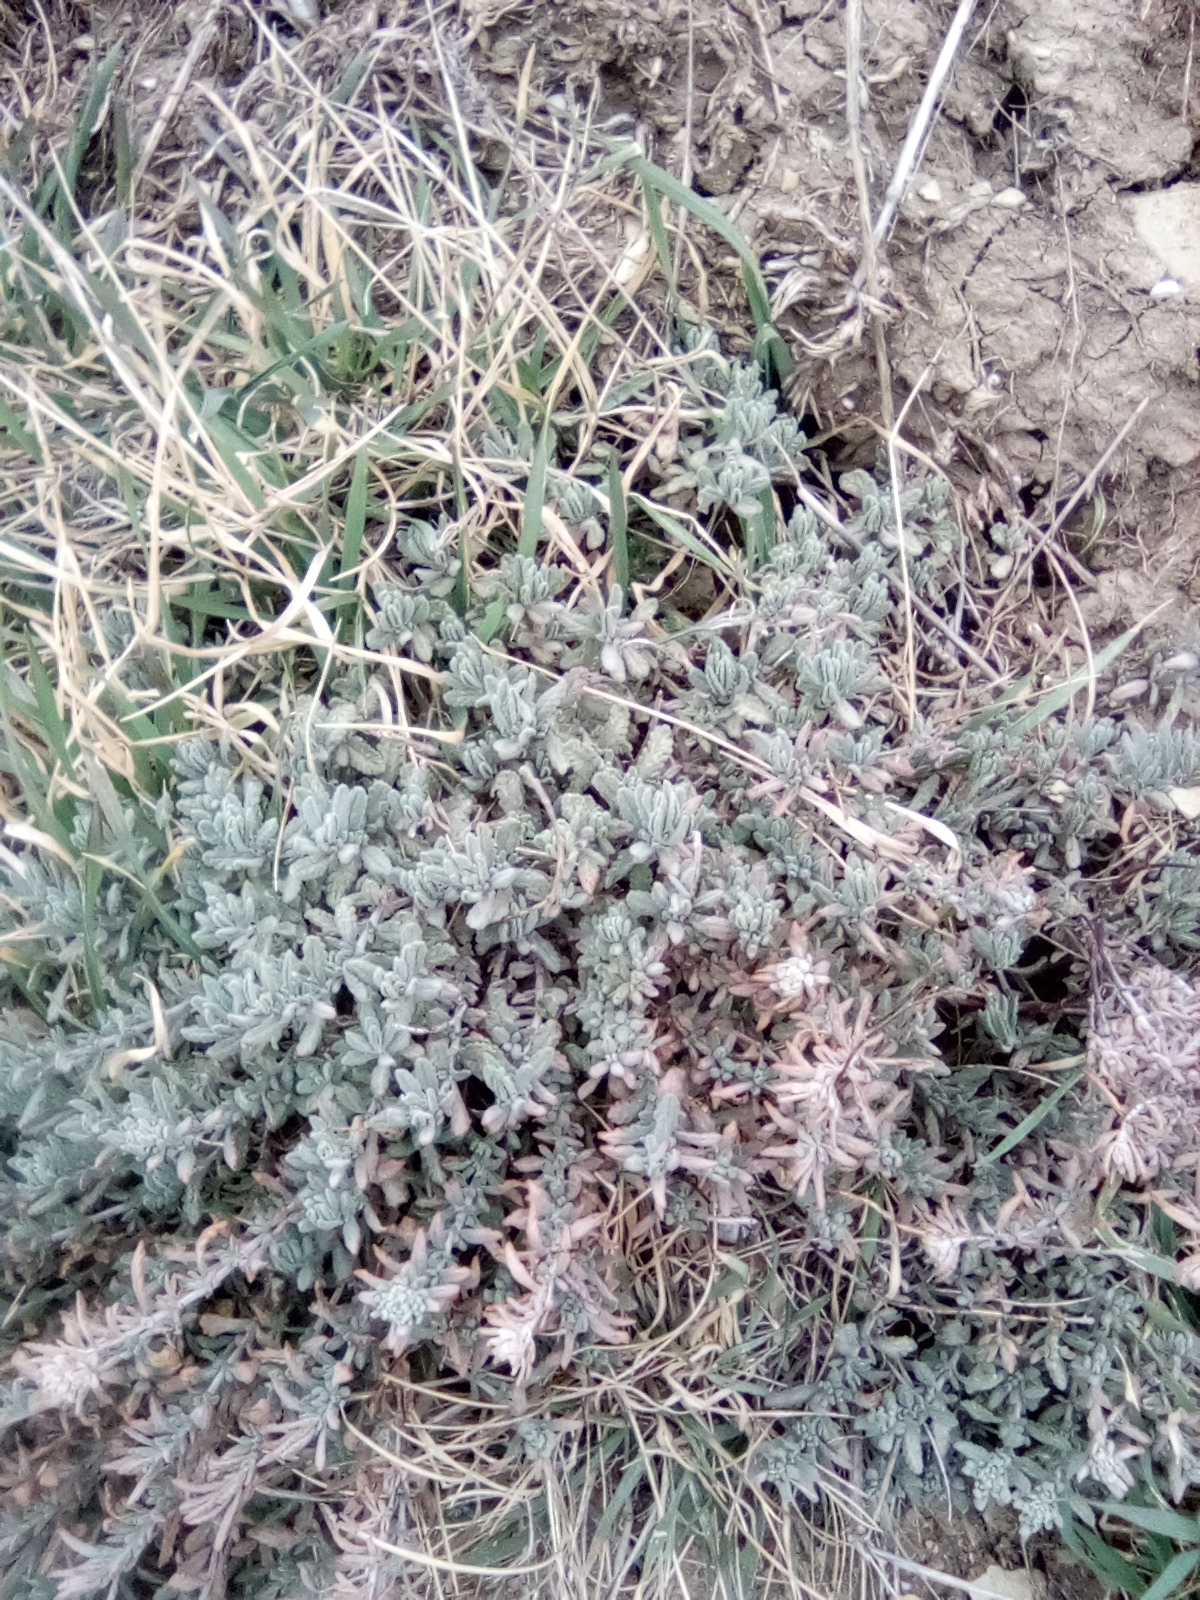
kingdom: Plantae
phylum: Tracheophyta
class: Magnoliopsida
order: Lamiales
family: Lamiaceae
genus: Teucrium
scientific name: Teucrium polium
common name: Poley
